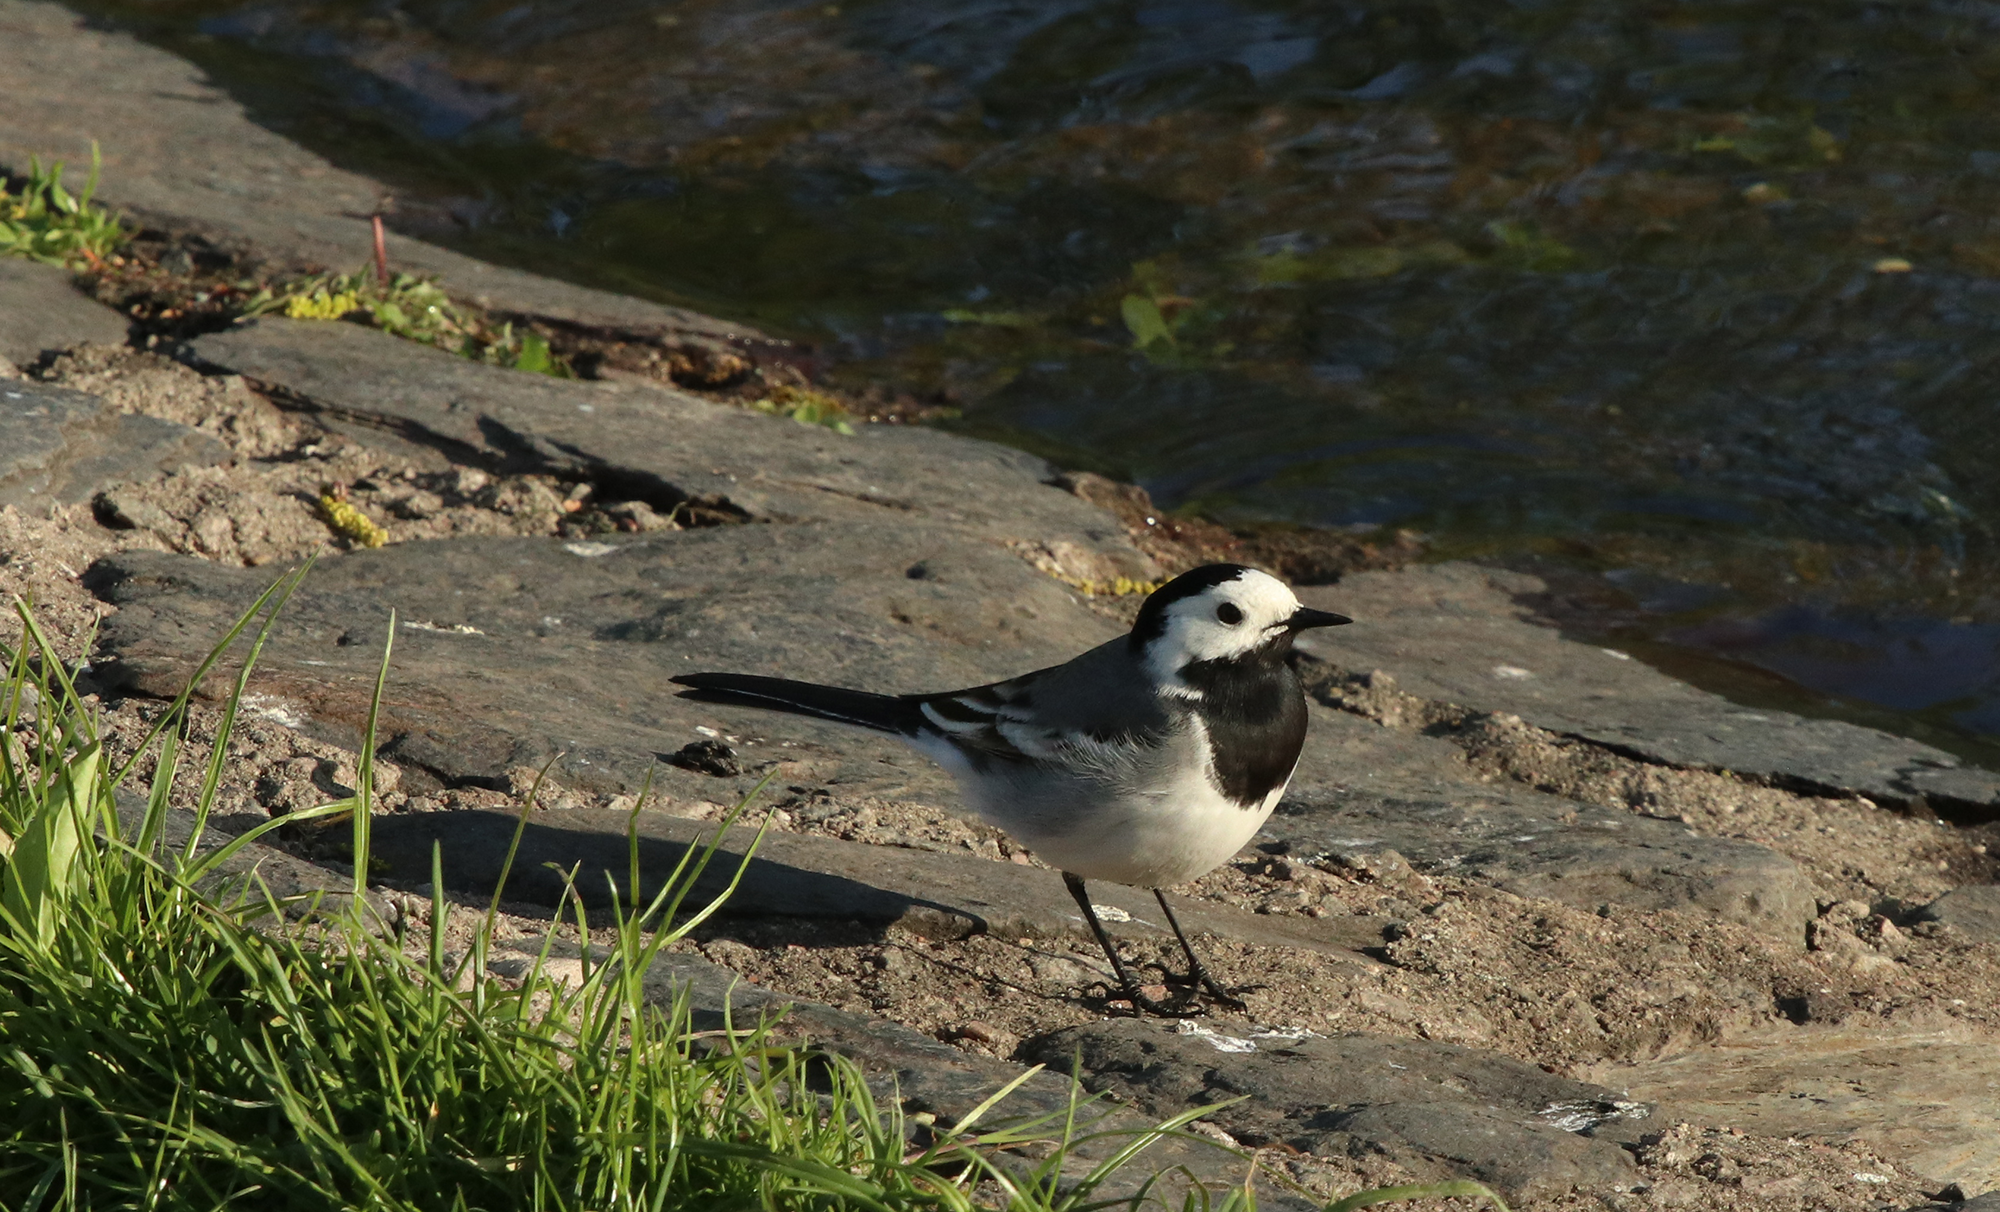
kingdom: Animalia
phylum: Chordata
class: Aves
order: Passeriformes
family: Motacillidae
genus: Motacilla
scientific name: Motacilla alba
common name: White wagtail
